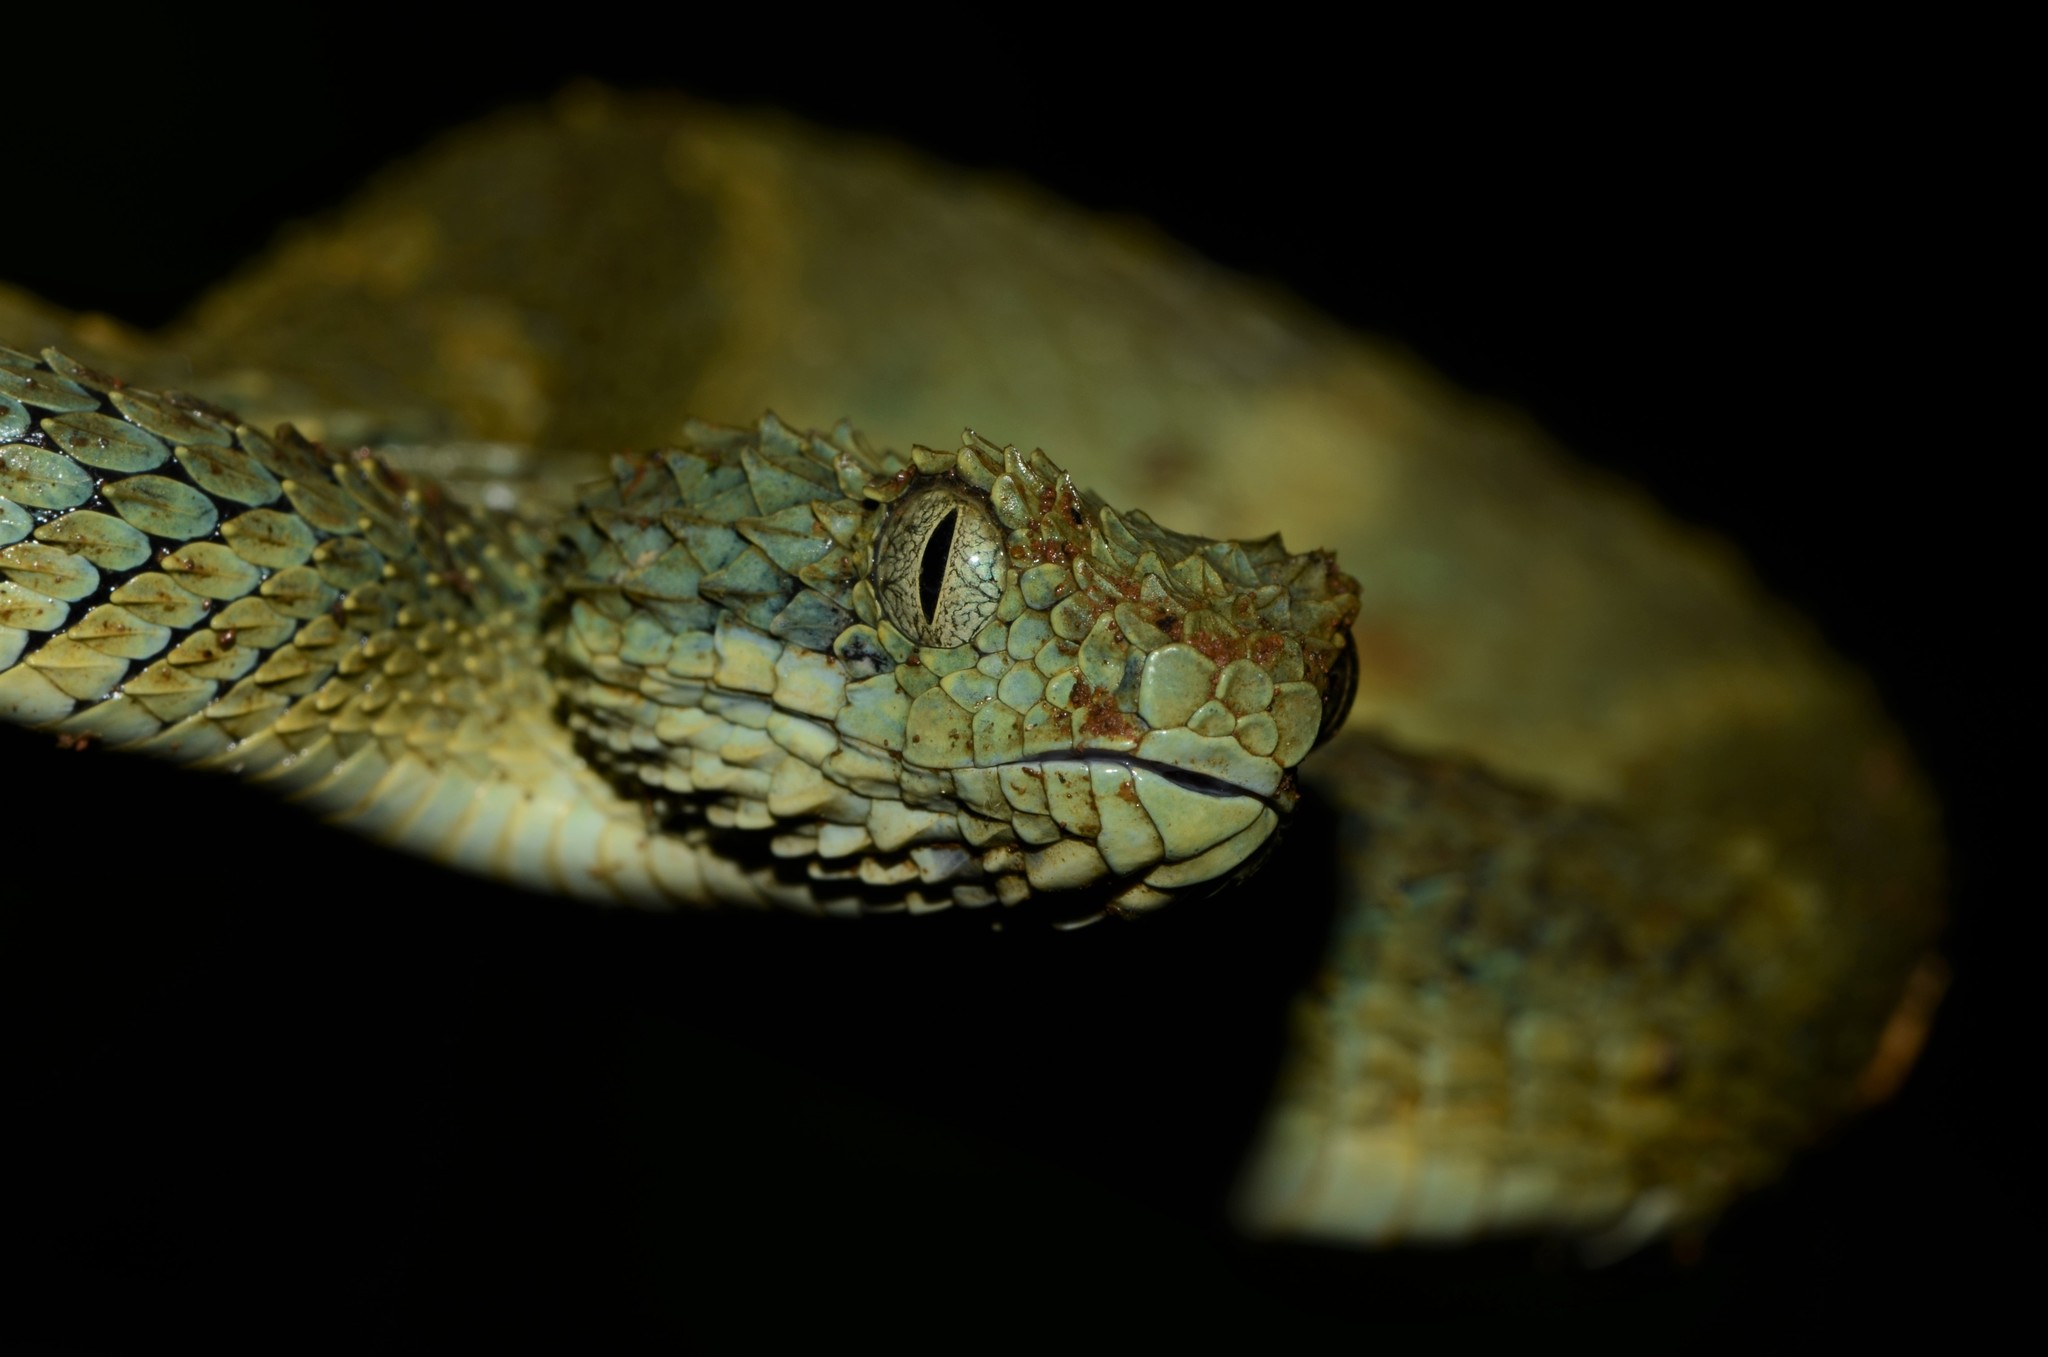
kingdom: Animalia
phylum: Chordata
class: Squamata
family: Viperidae
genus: Atheris
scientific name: Atheris squamigera
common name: African bush viper
